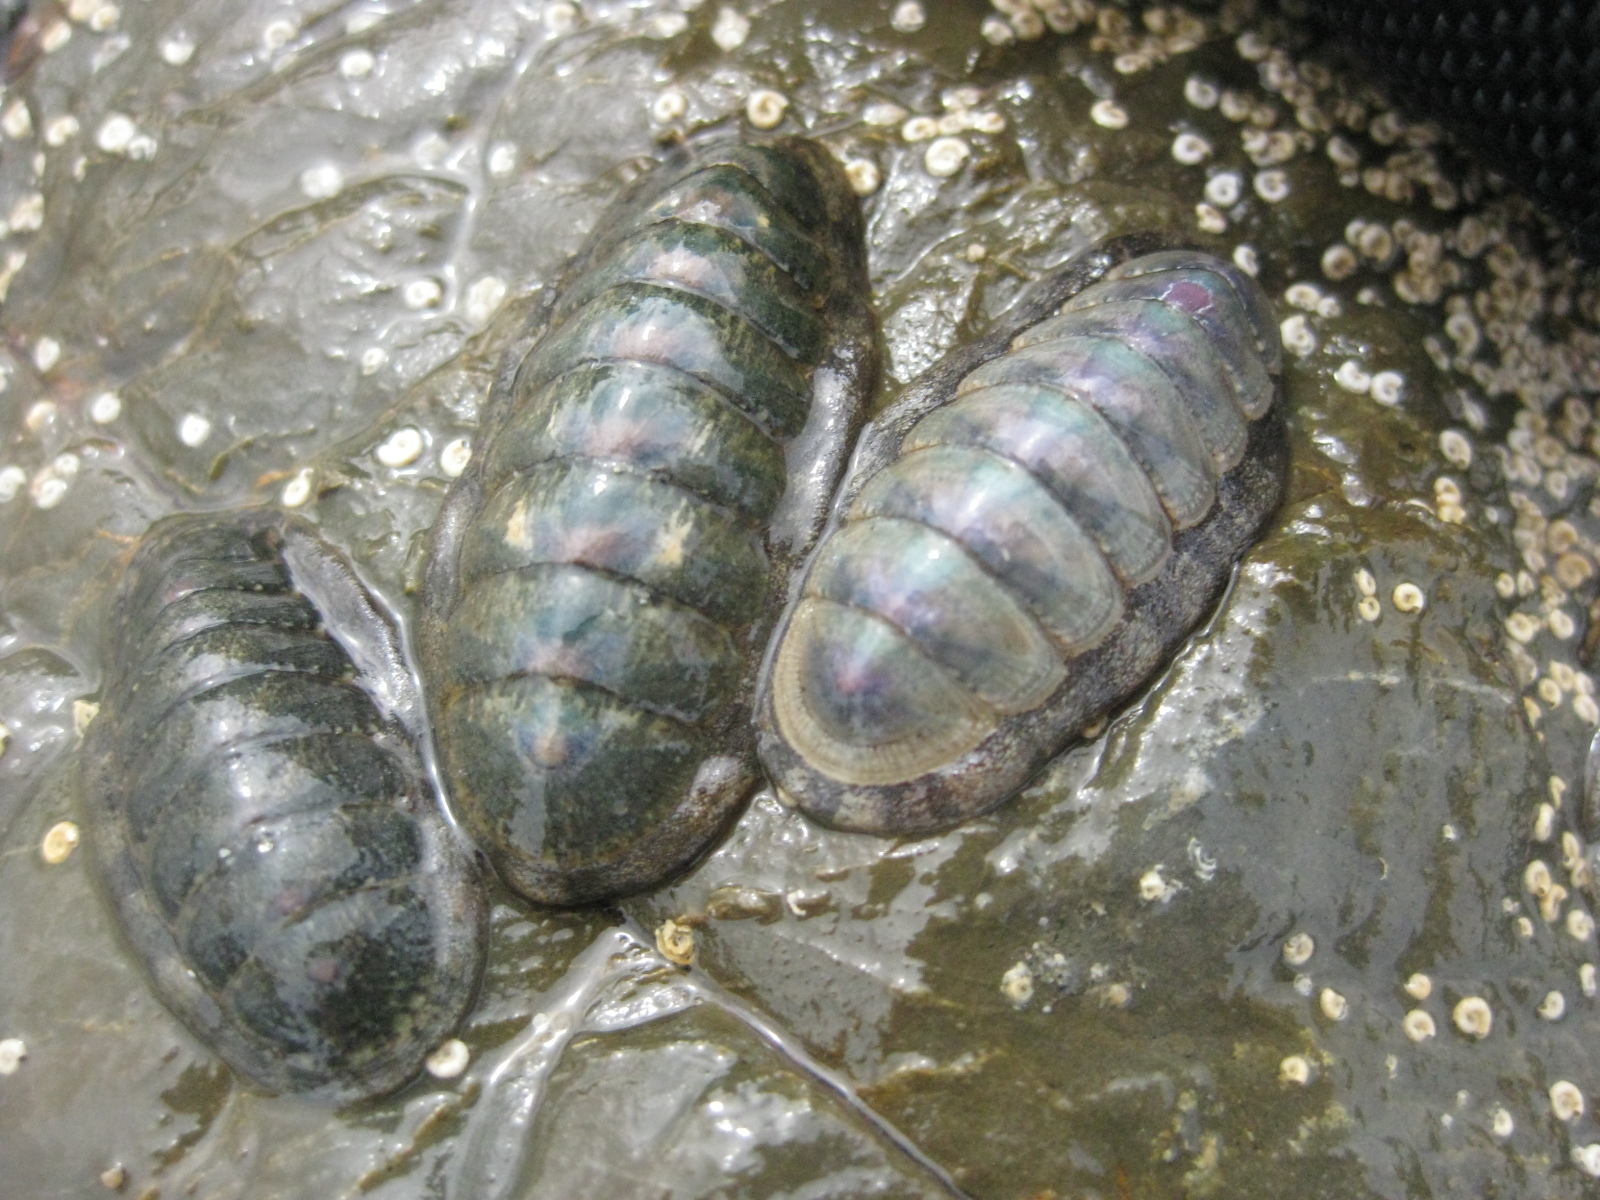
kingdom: Animalia
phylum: Mollusca
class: Polyplacophora
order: Chitonida
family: Ischnochitonidae
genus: Ischnochiton
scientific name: Ischnochiton maorianus
